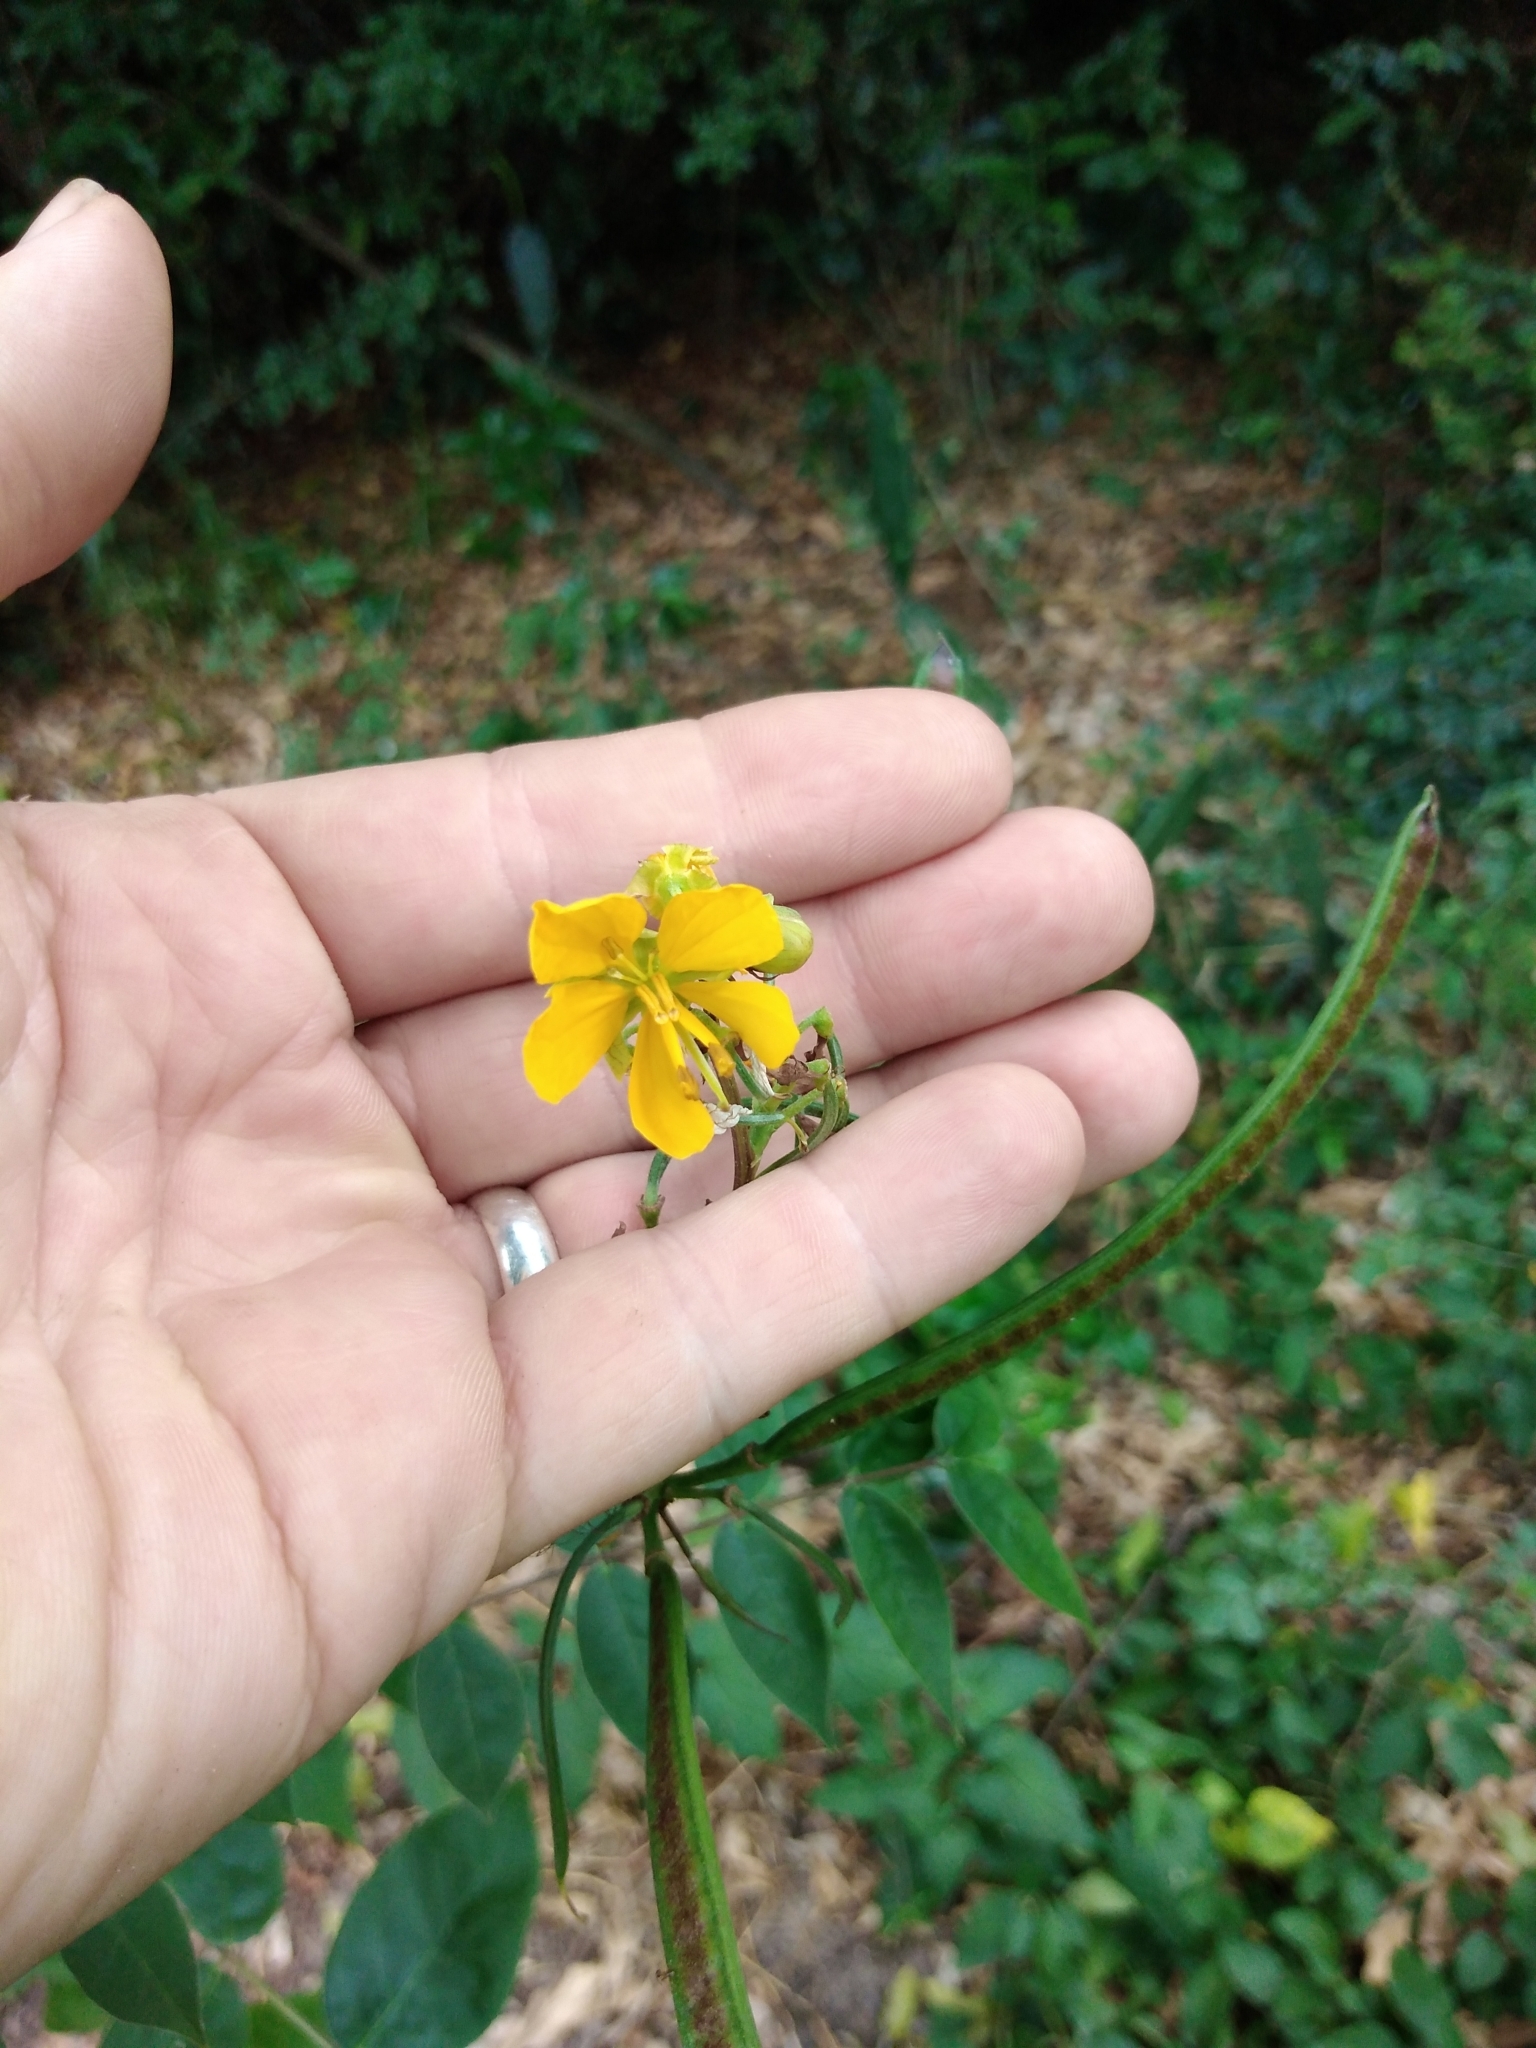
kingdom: Plantae
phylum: Tracheophyta
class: Magnoliopsida
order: Fabales
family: Fabaceae
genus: Senna
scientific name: Senna occidentalis
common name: Septicweed
